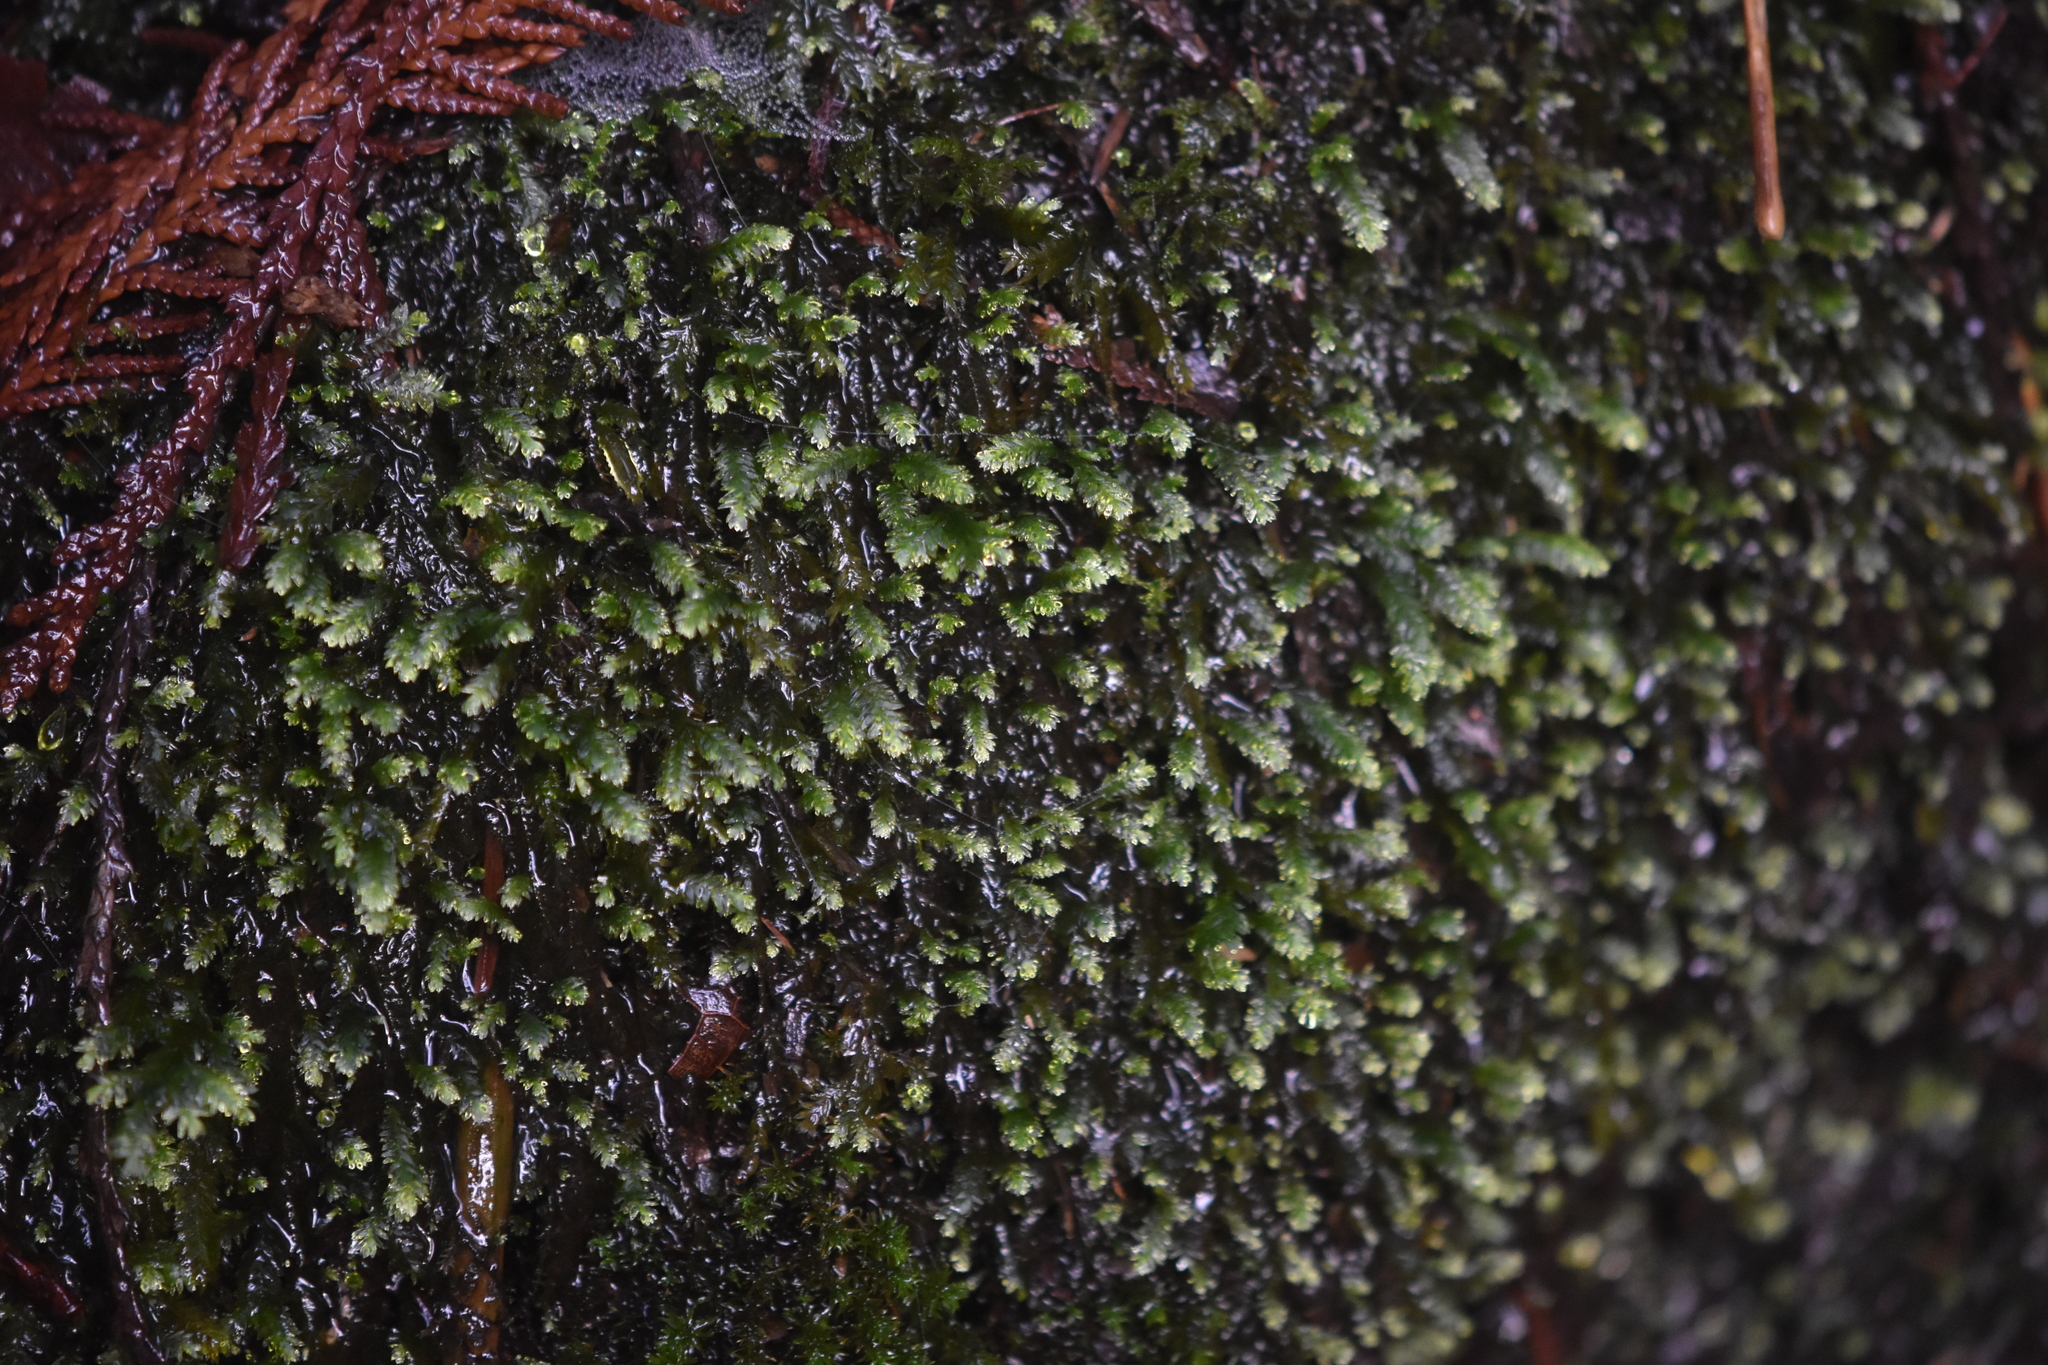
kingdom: Plantae
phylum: Bryophyta
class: Bryopsida
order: Hypnales
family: Neckeraceae
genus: Dannorrisia
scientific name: Dannorrisia bigelovii
